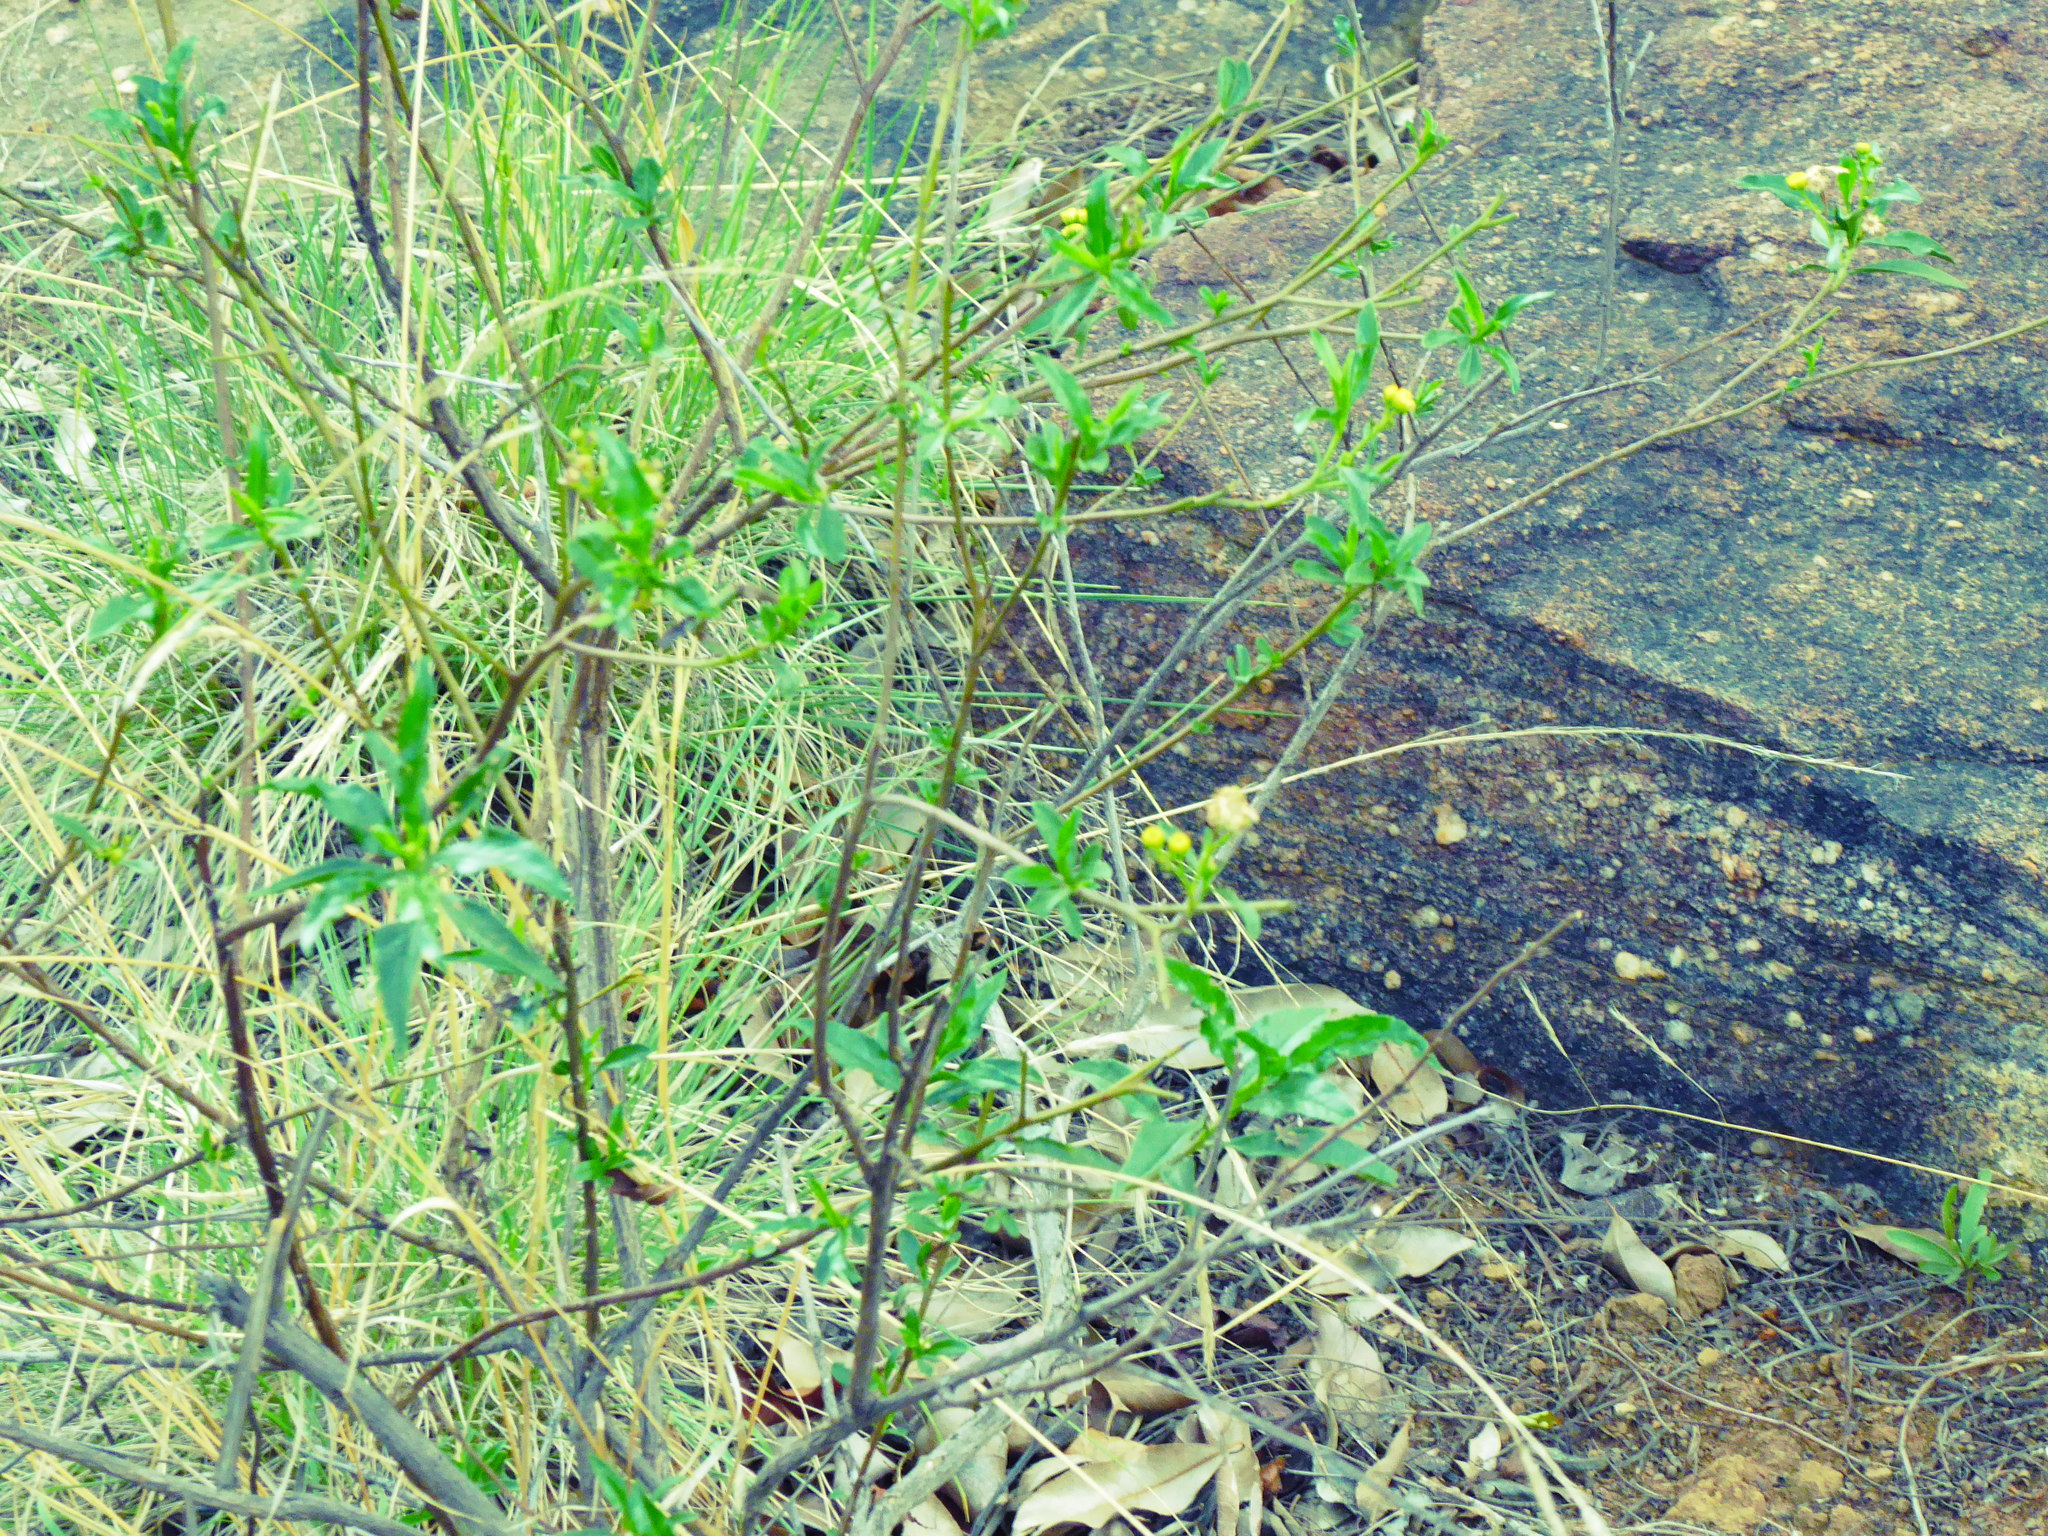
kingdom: Plantae
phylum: Tracheophyta
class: Magnoliopsida
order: Asterales
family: Asteraceae
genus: Psiadia
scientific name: Psiadia punctulata
